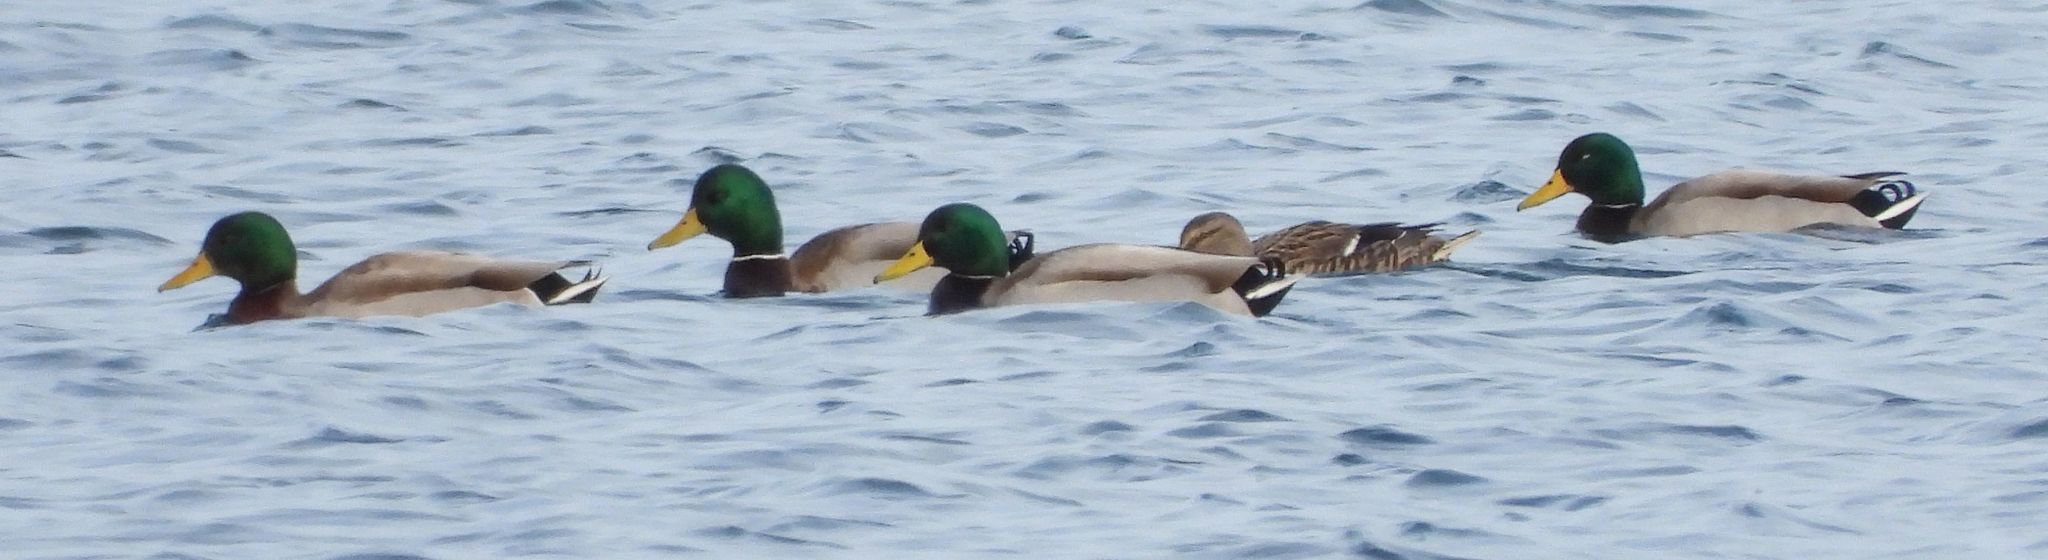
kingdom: Animalia
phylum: Chordata
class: Aves
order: Anseriformes
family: Anatidae
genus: Anas
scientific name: Anas platyrhynchos
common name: Mallard
